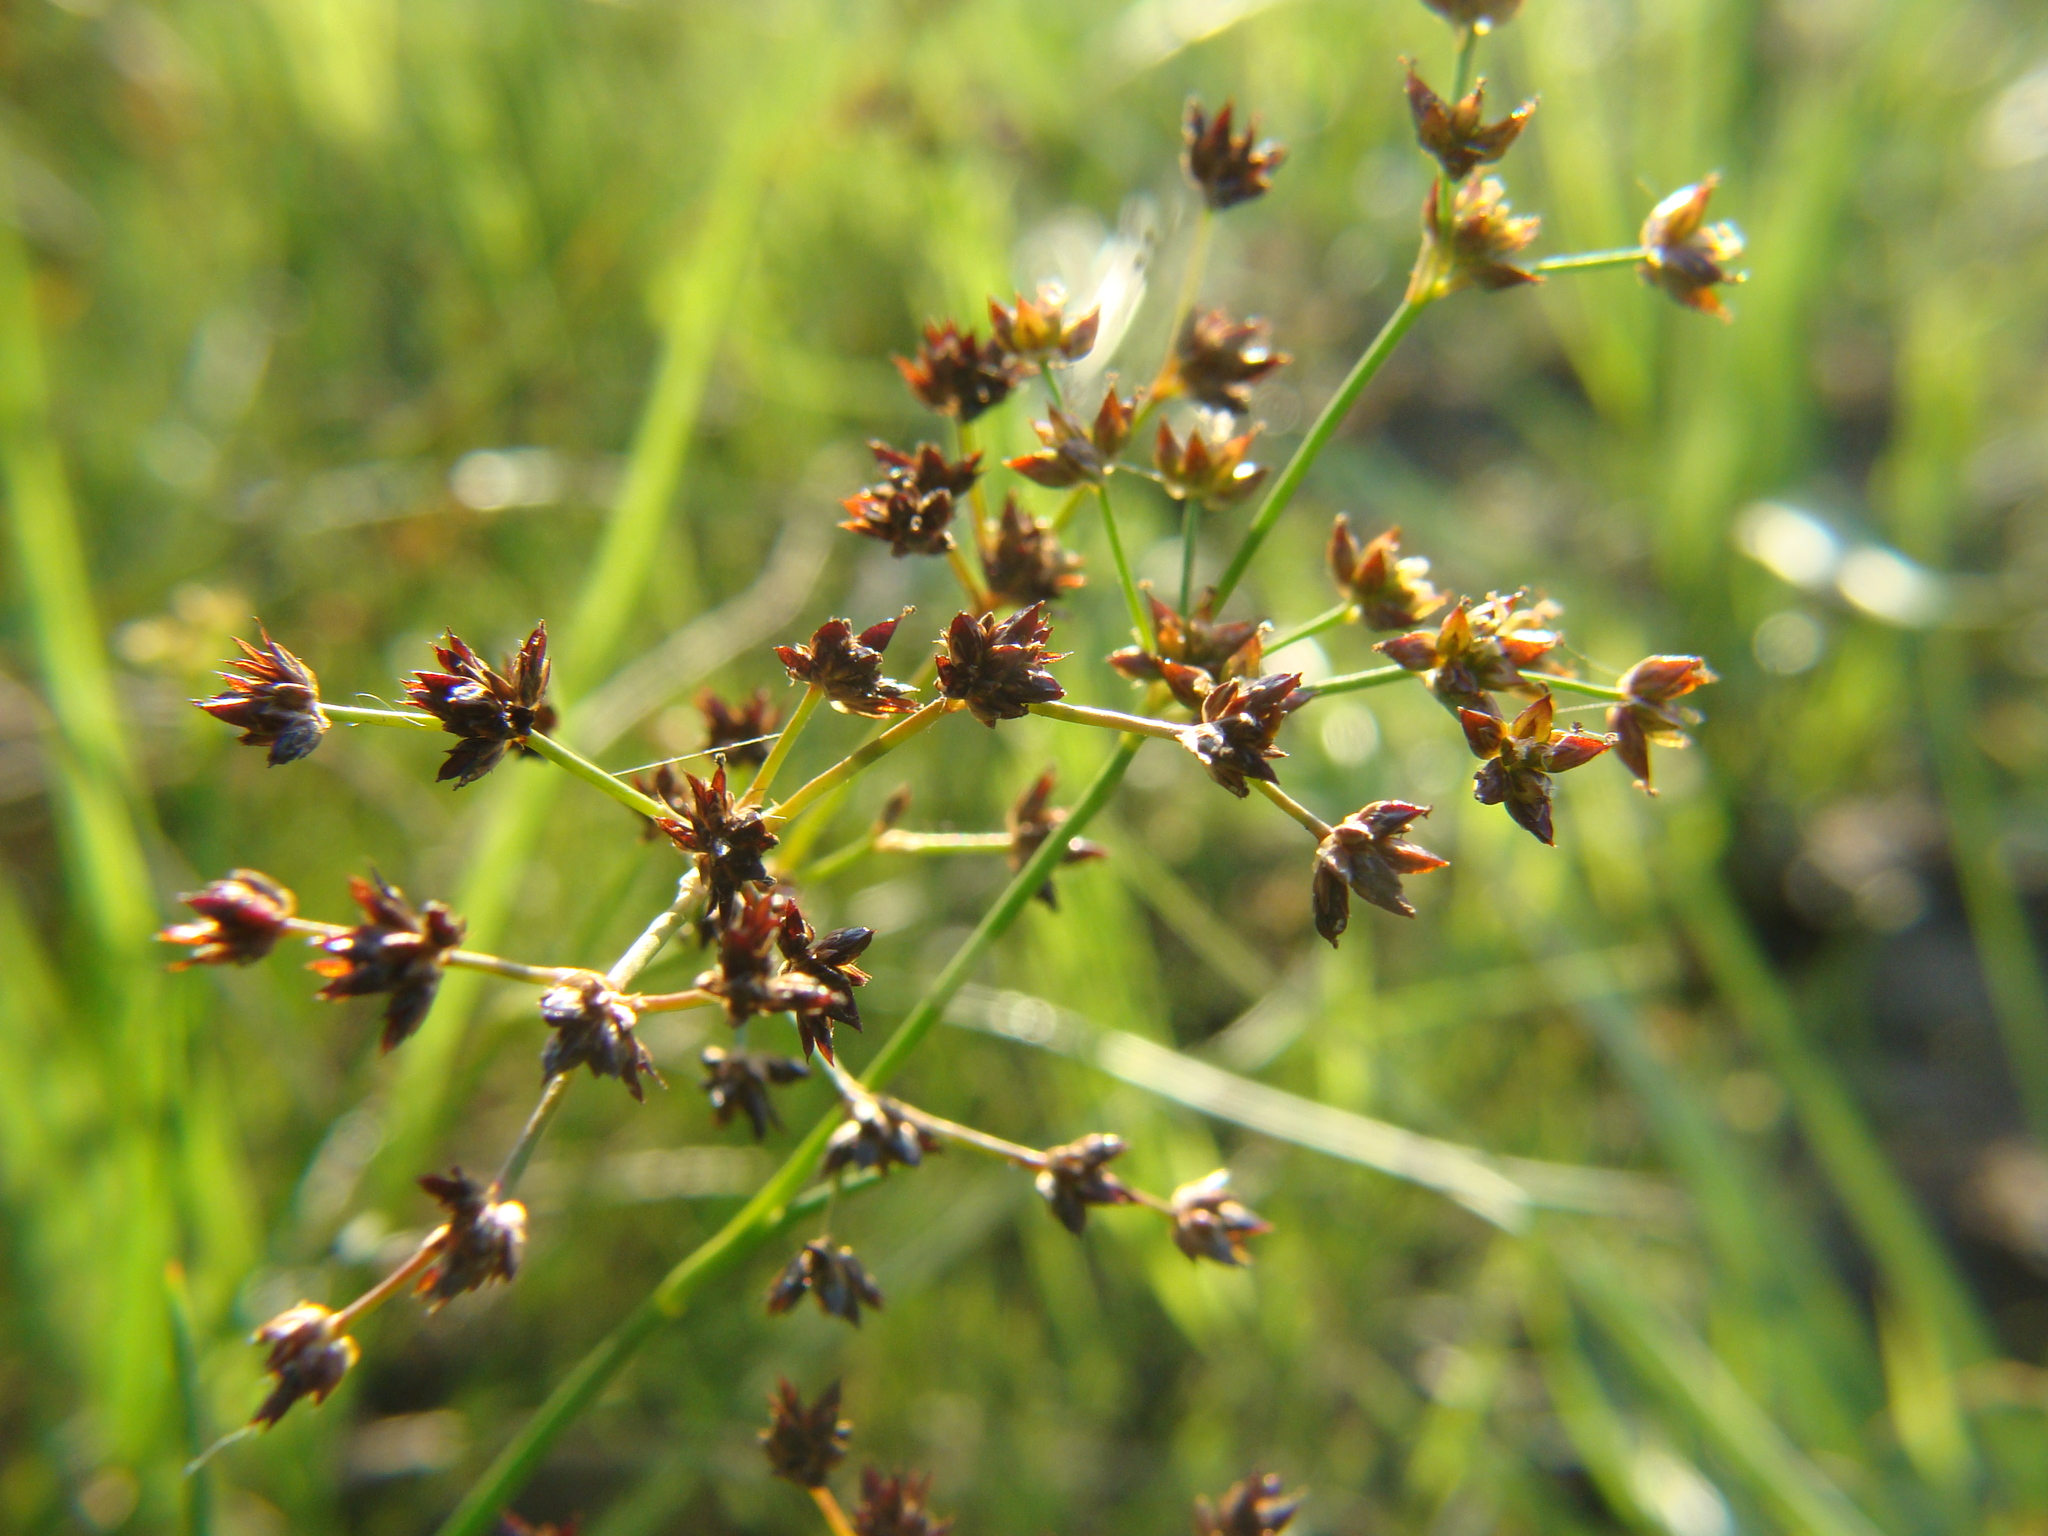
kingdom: Plantae
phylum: Tracheophyta
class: Liliopsida
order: Poales
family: Juncaceae
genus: Juncus
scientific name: Juncus articulatus
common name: Jointed rush
